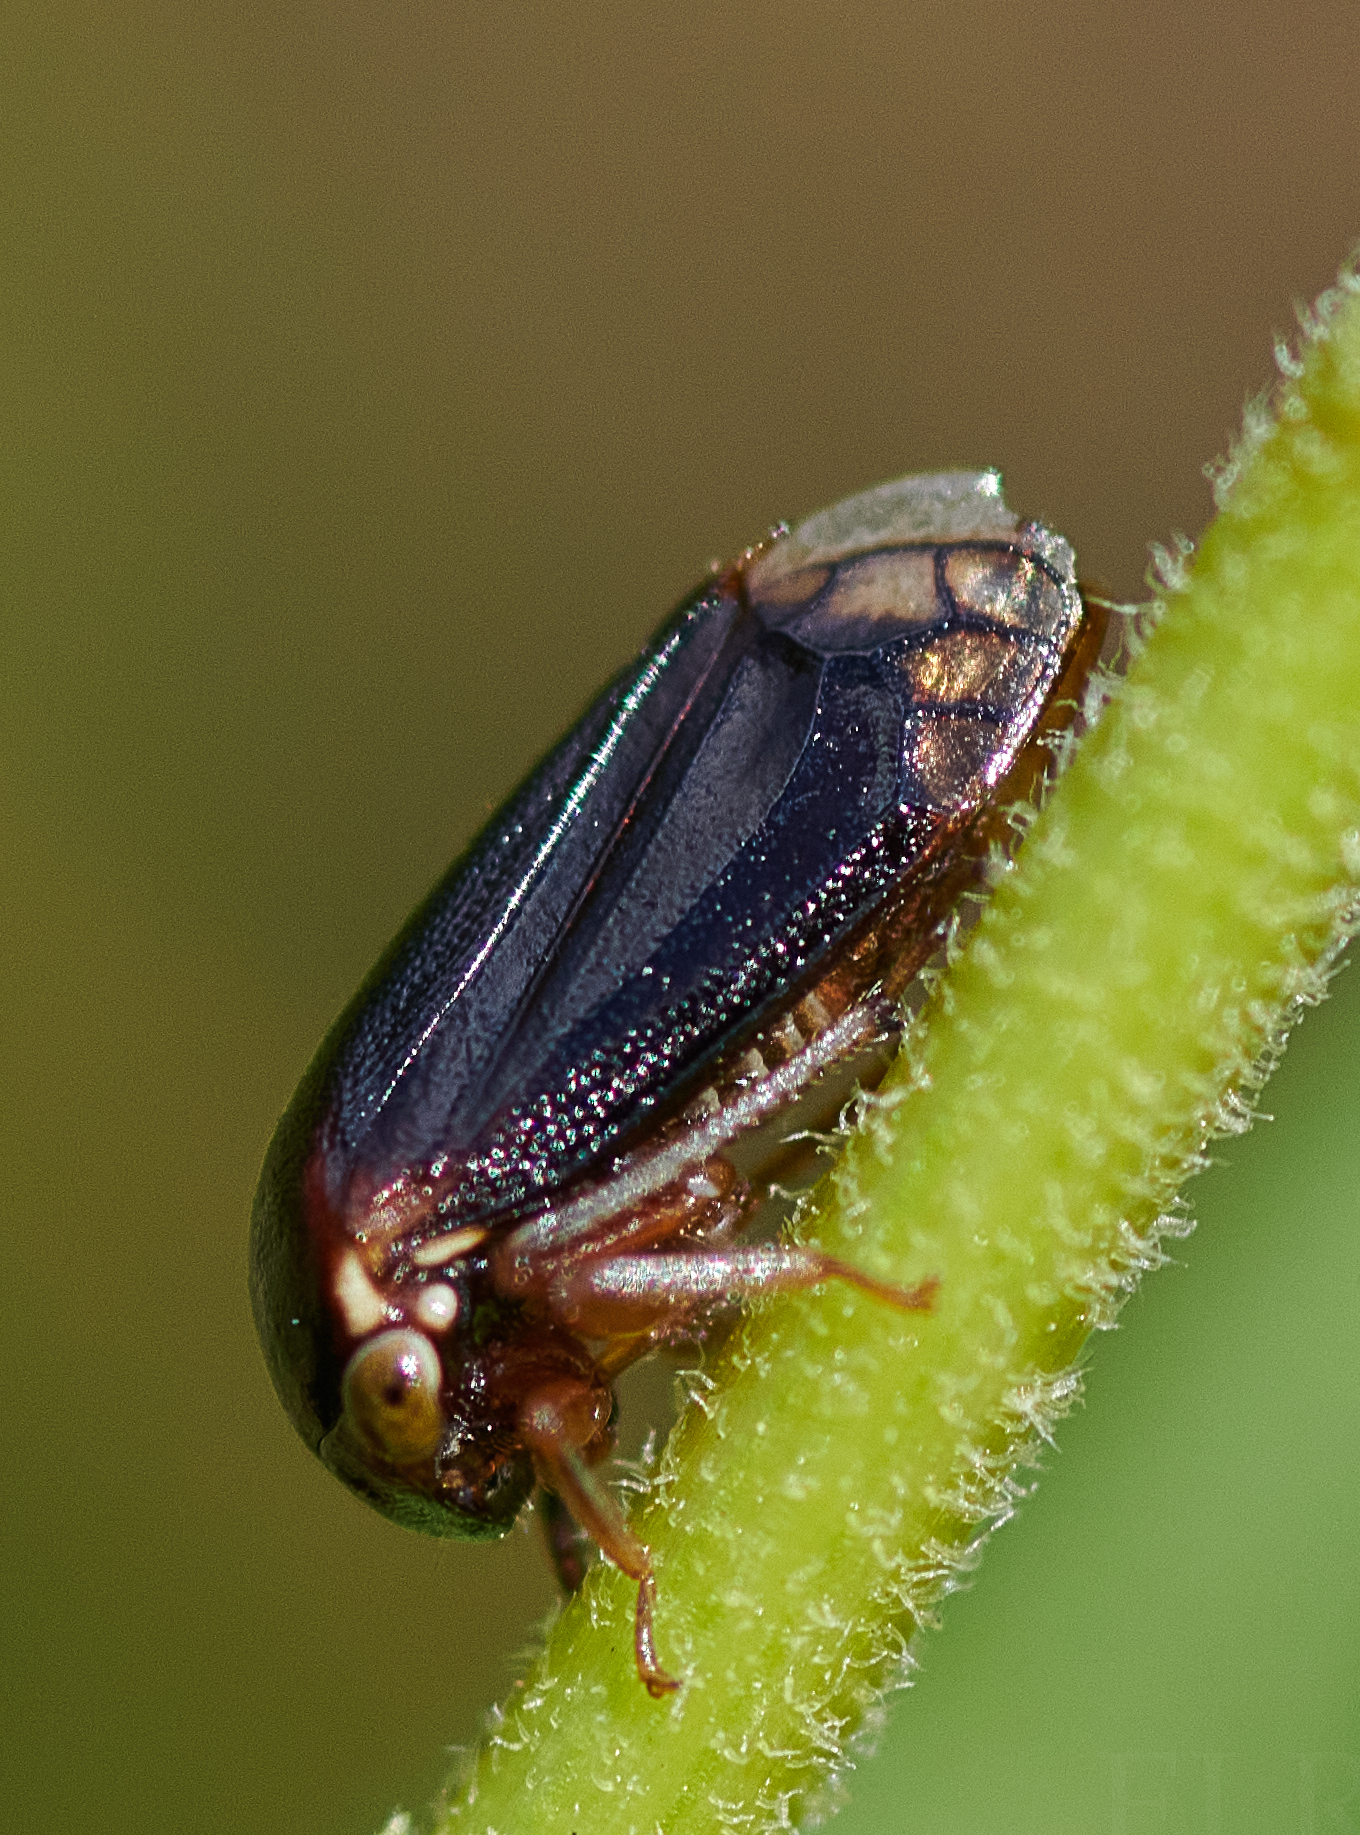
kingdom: Animalia
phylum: Arthropoda
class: Insecta
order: Hemiptera
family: Membracidae
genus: Acutalis
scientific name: Acutalis tartarea
